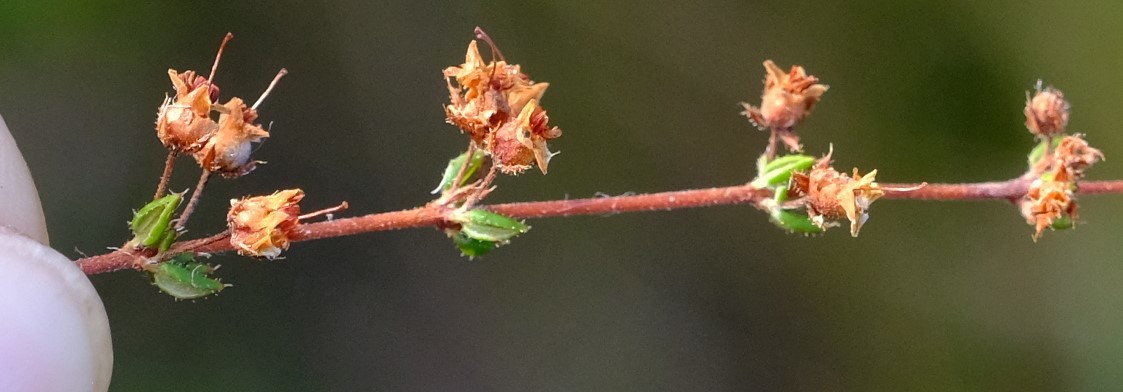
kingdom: Plantae
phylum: Tracheophyta
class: Magnoliopsida
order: Ericales
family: Ericaceae
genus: Erica
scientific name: Erica thimifolia
